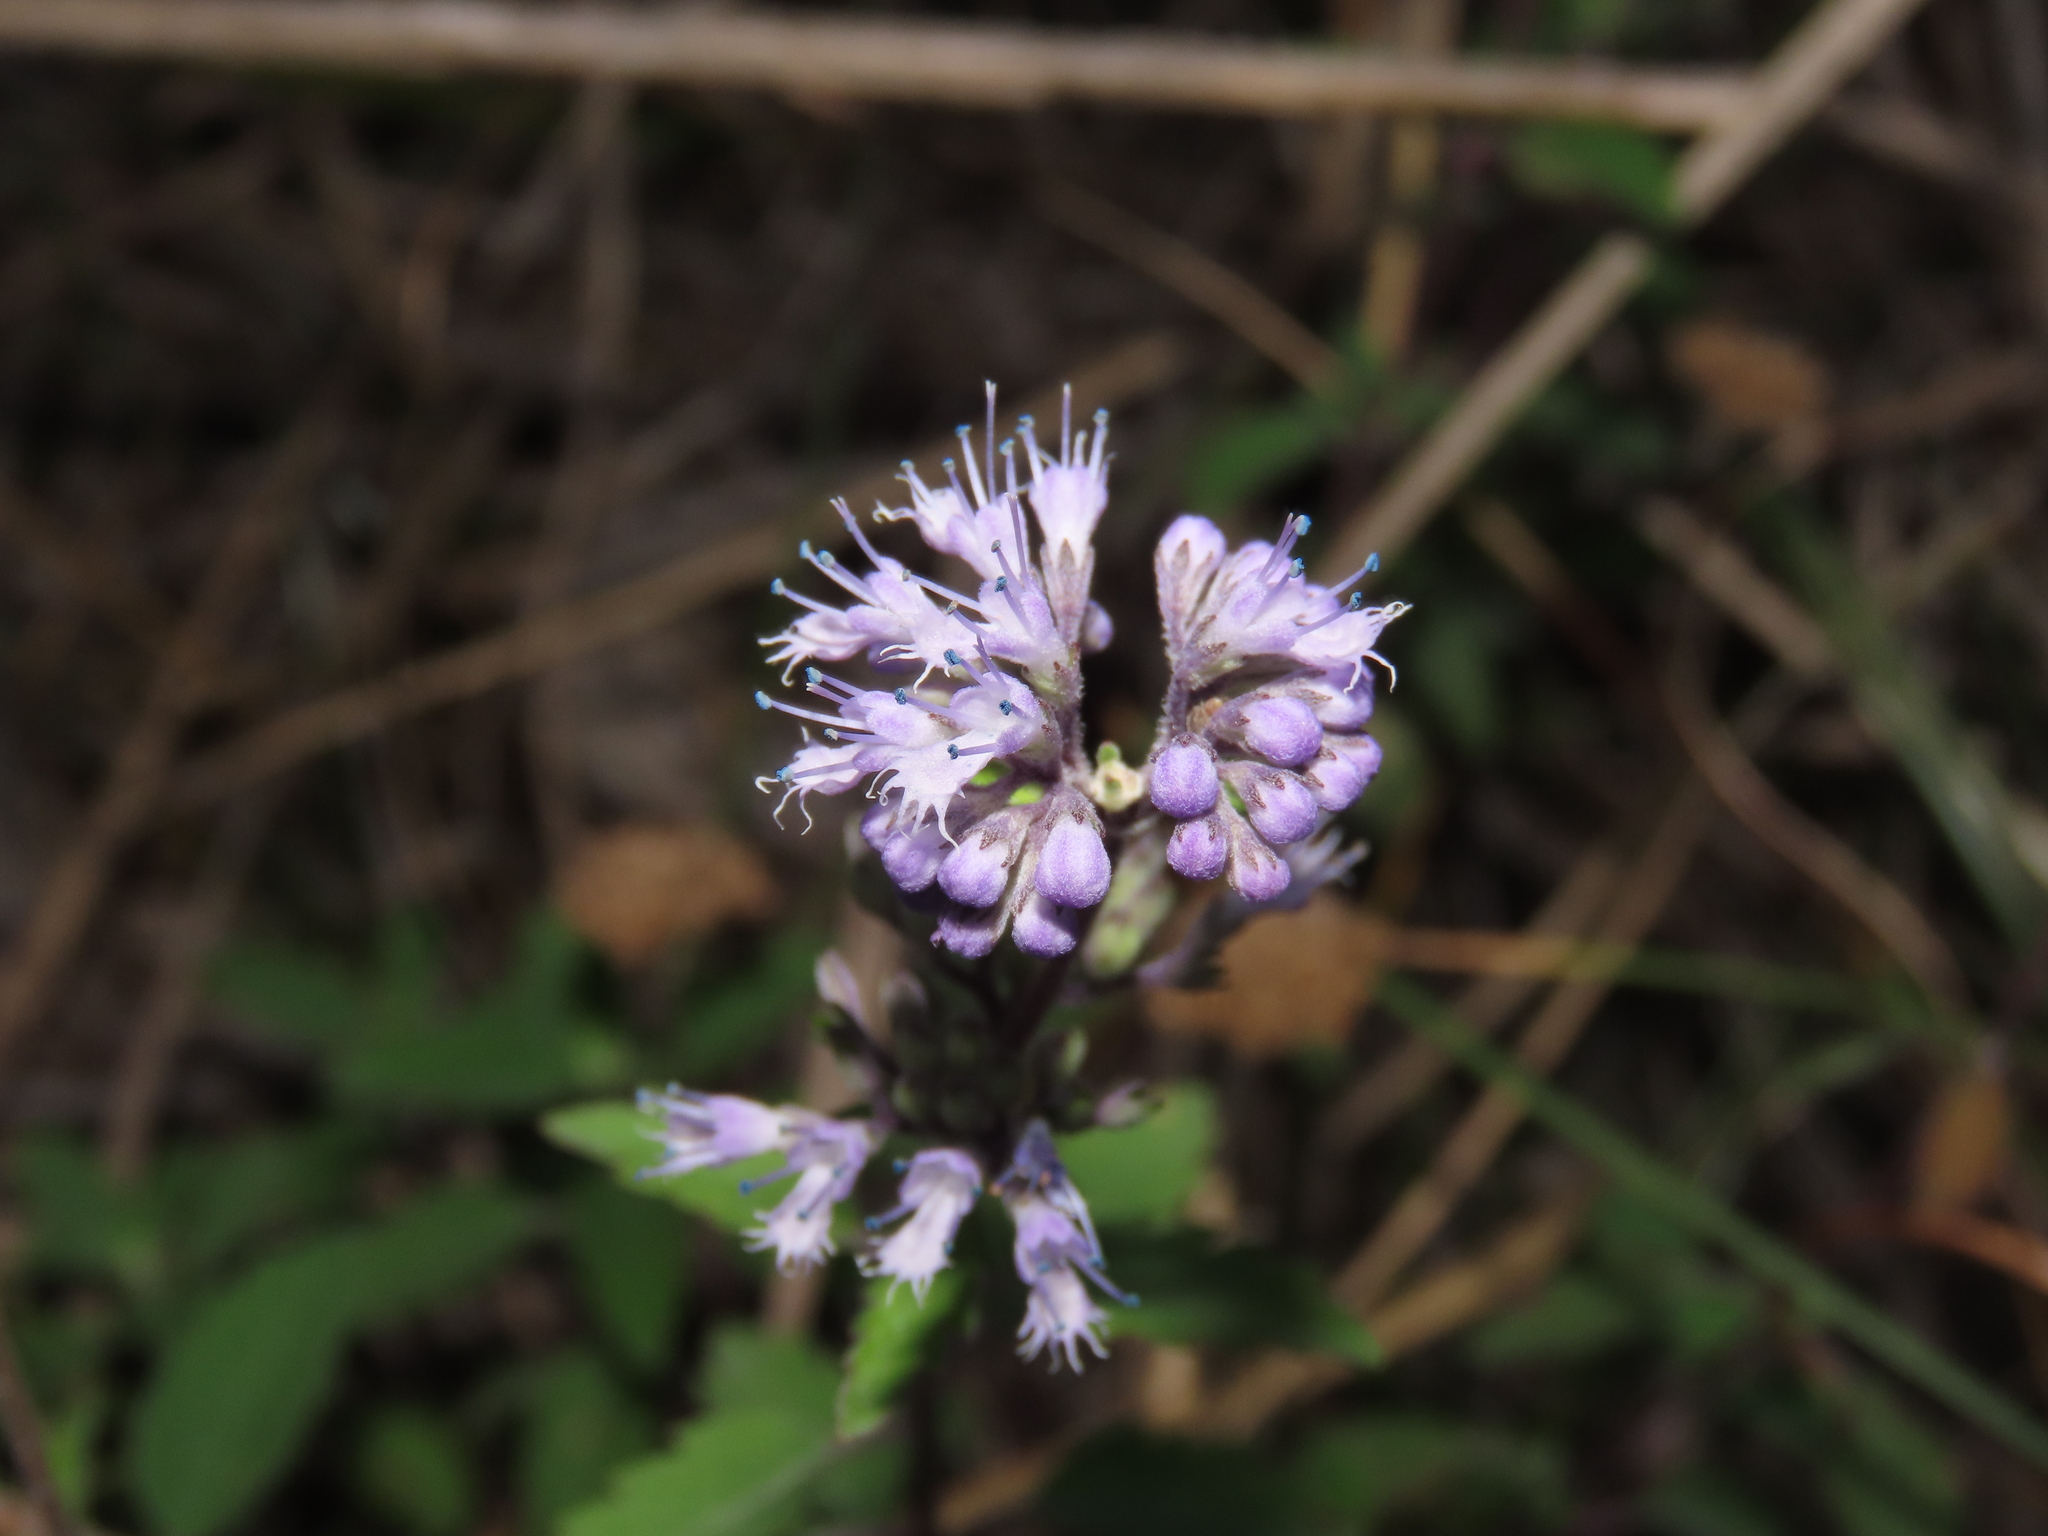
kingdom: Plantae
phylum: Tracheophyta
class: Magnoliopsida
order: Lamiales
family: Lamiaceae
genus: Caryopteris
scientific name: Caryopteris incana
